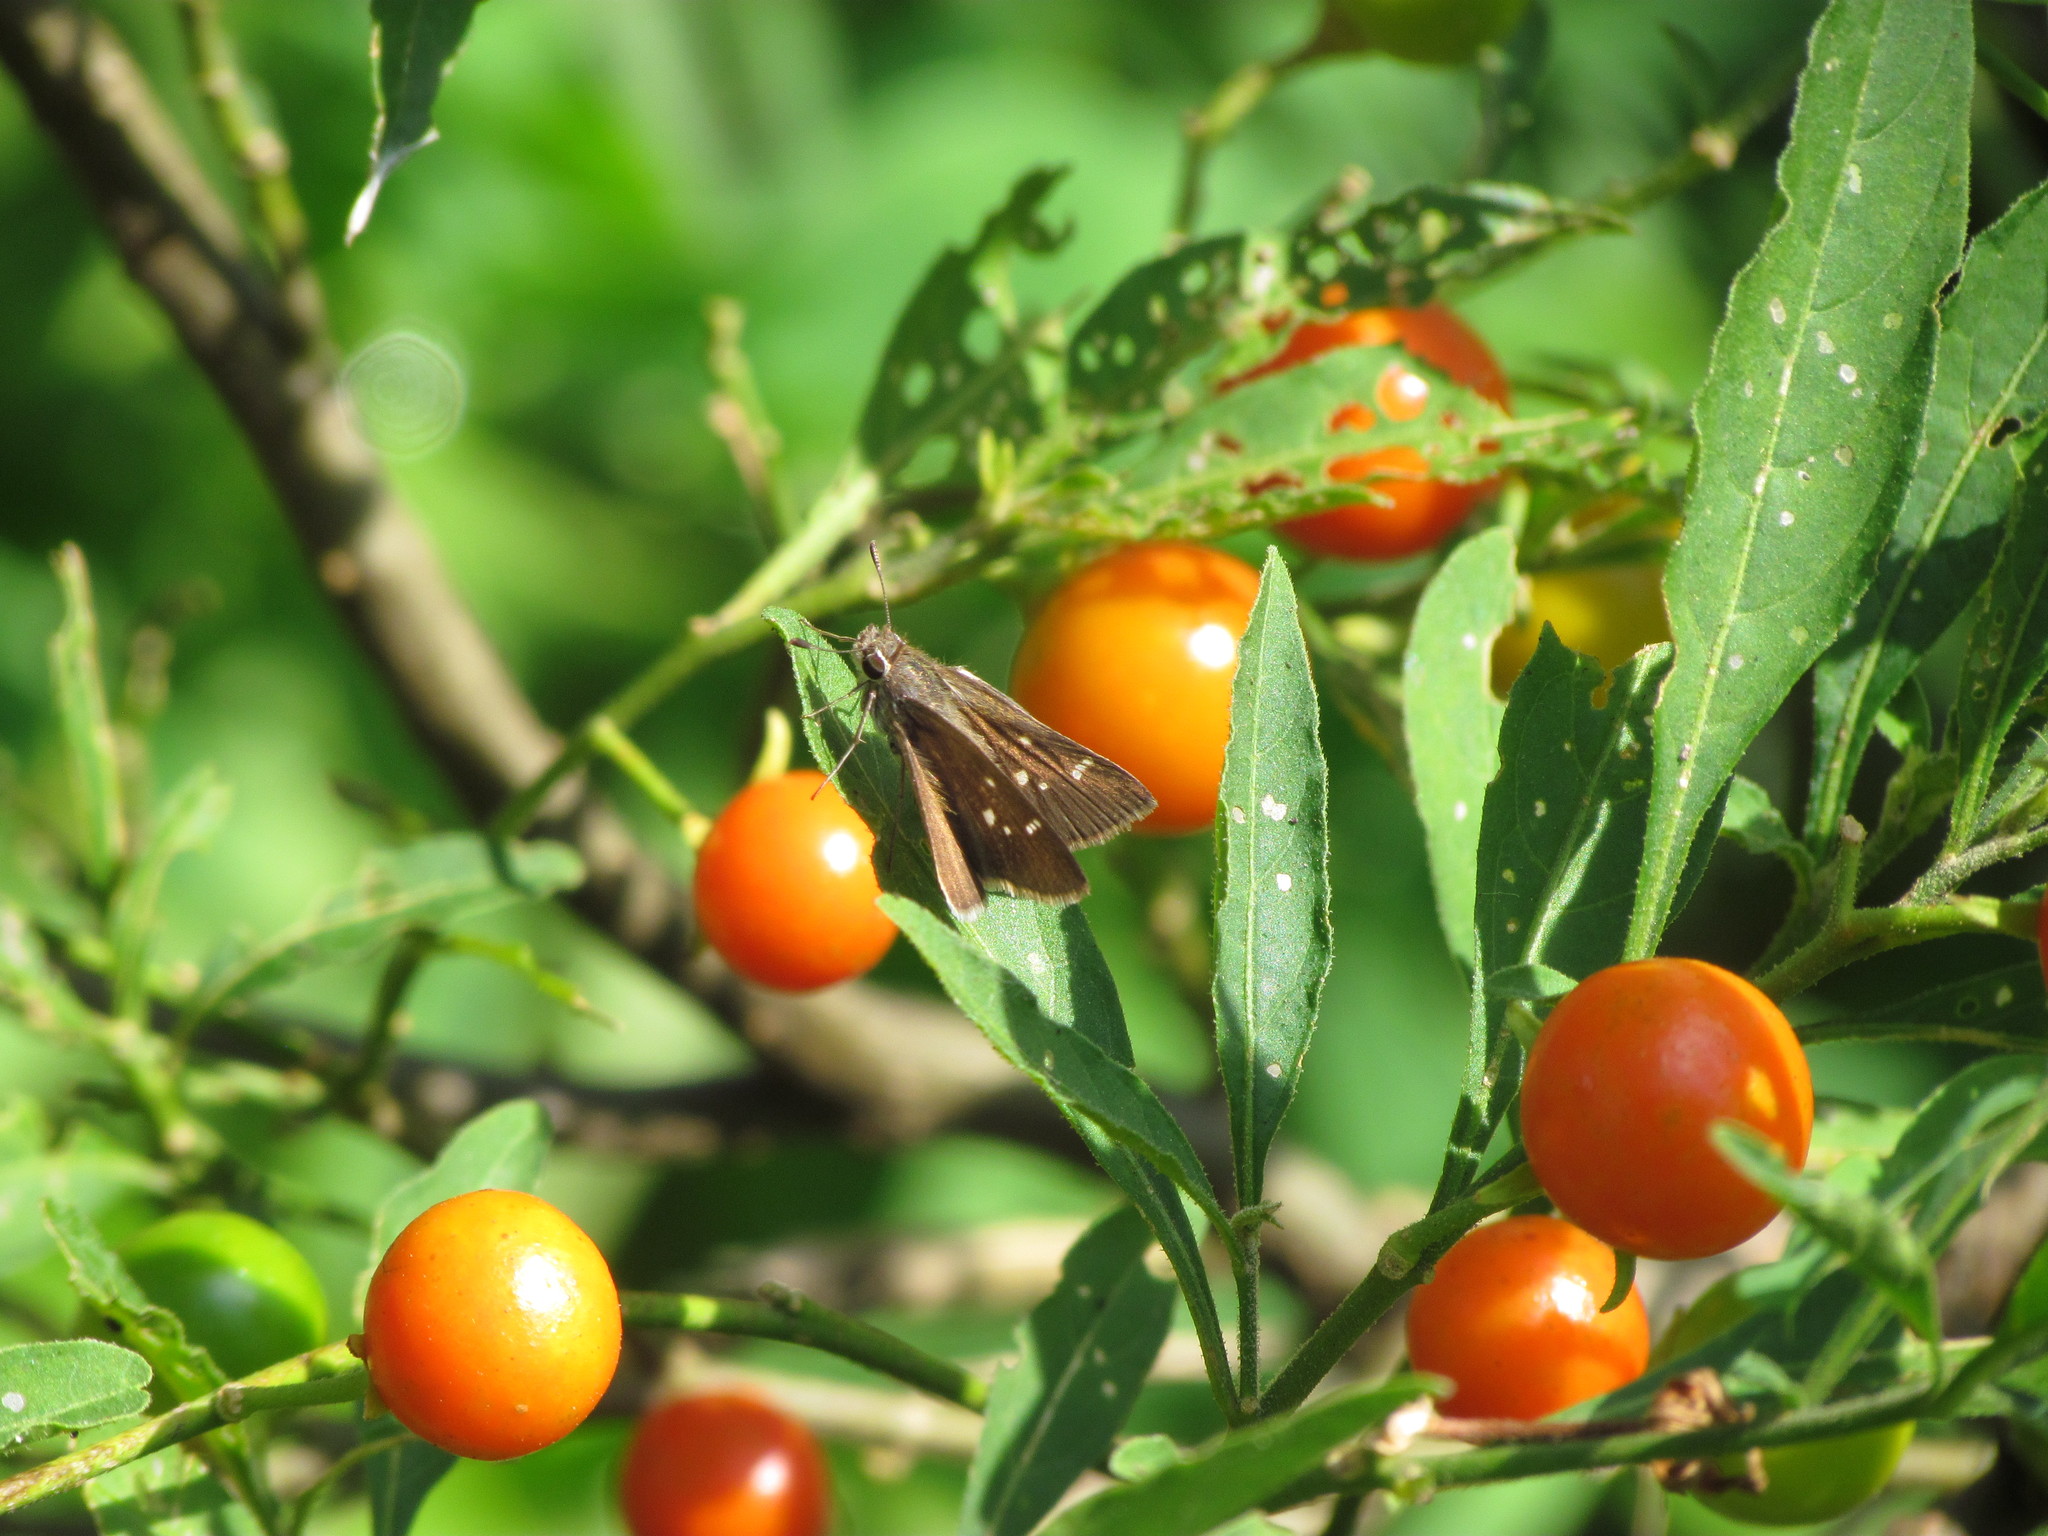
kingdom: Animalia
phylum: Arthropoda
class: Insecta
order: Lepidoptera
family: Hesperiidae
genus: Lerodea
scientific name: Lerodea eufala
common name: Eufala skipper
